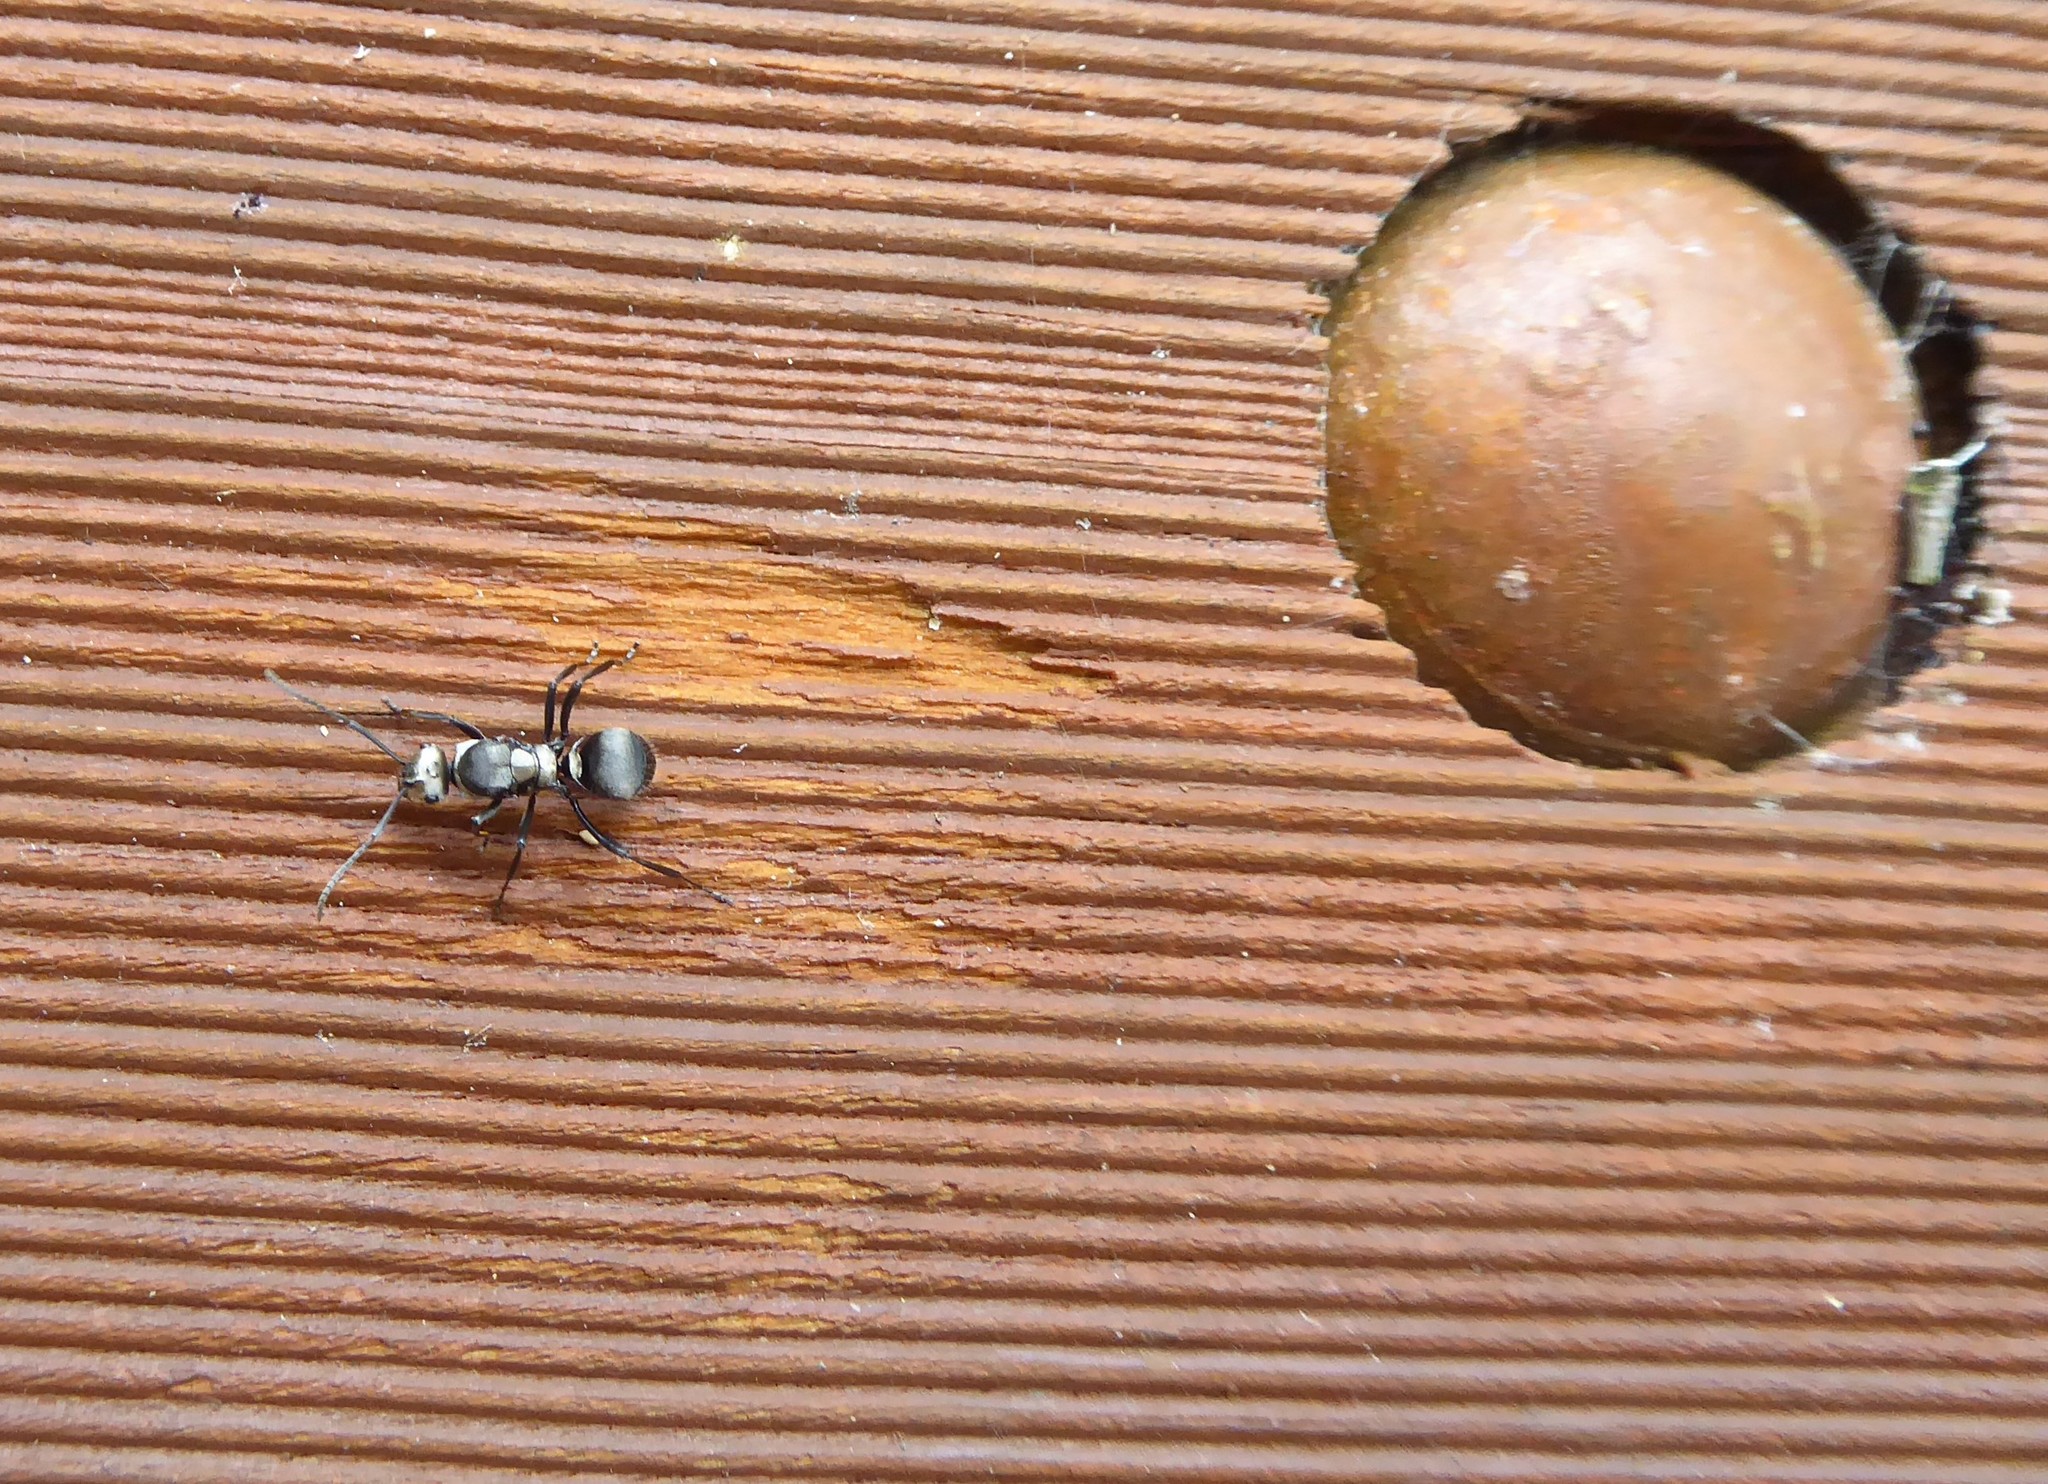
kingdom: Animalia
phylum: Arthropoda
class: Insecta
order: Hymenoptera
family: Formicidae
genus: Polyrhachis
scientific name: Polyrhachis daemeli
